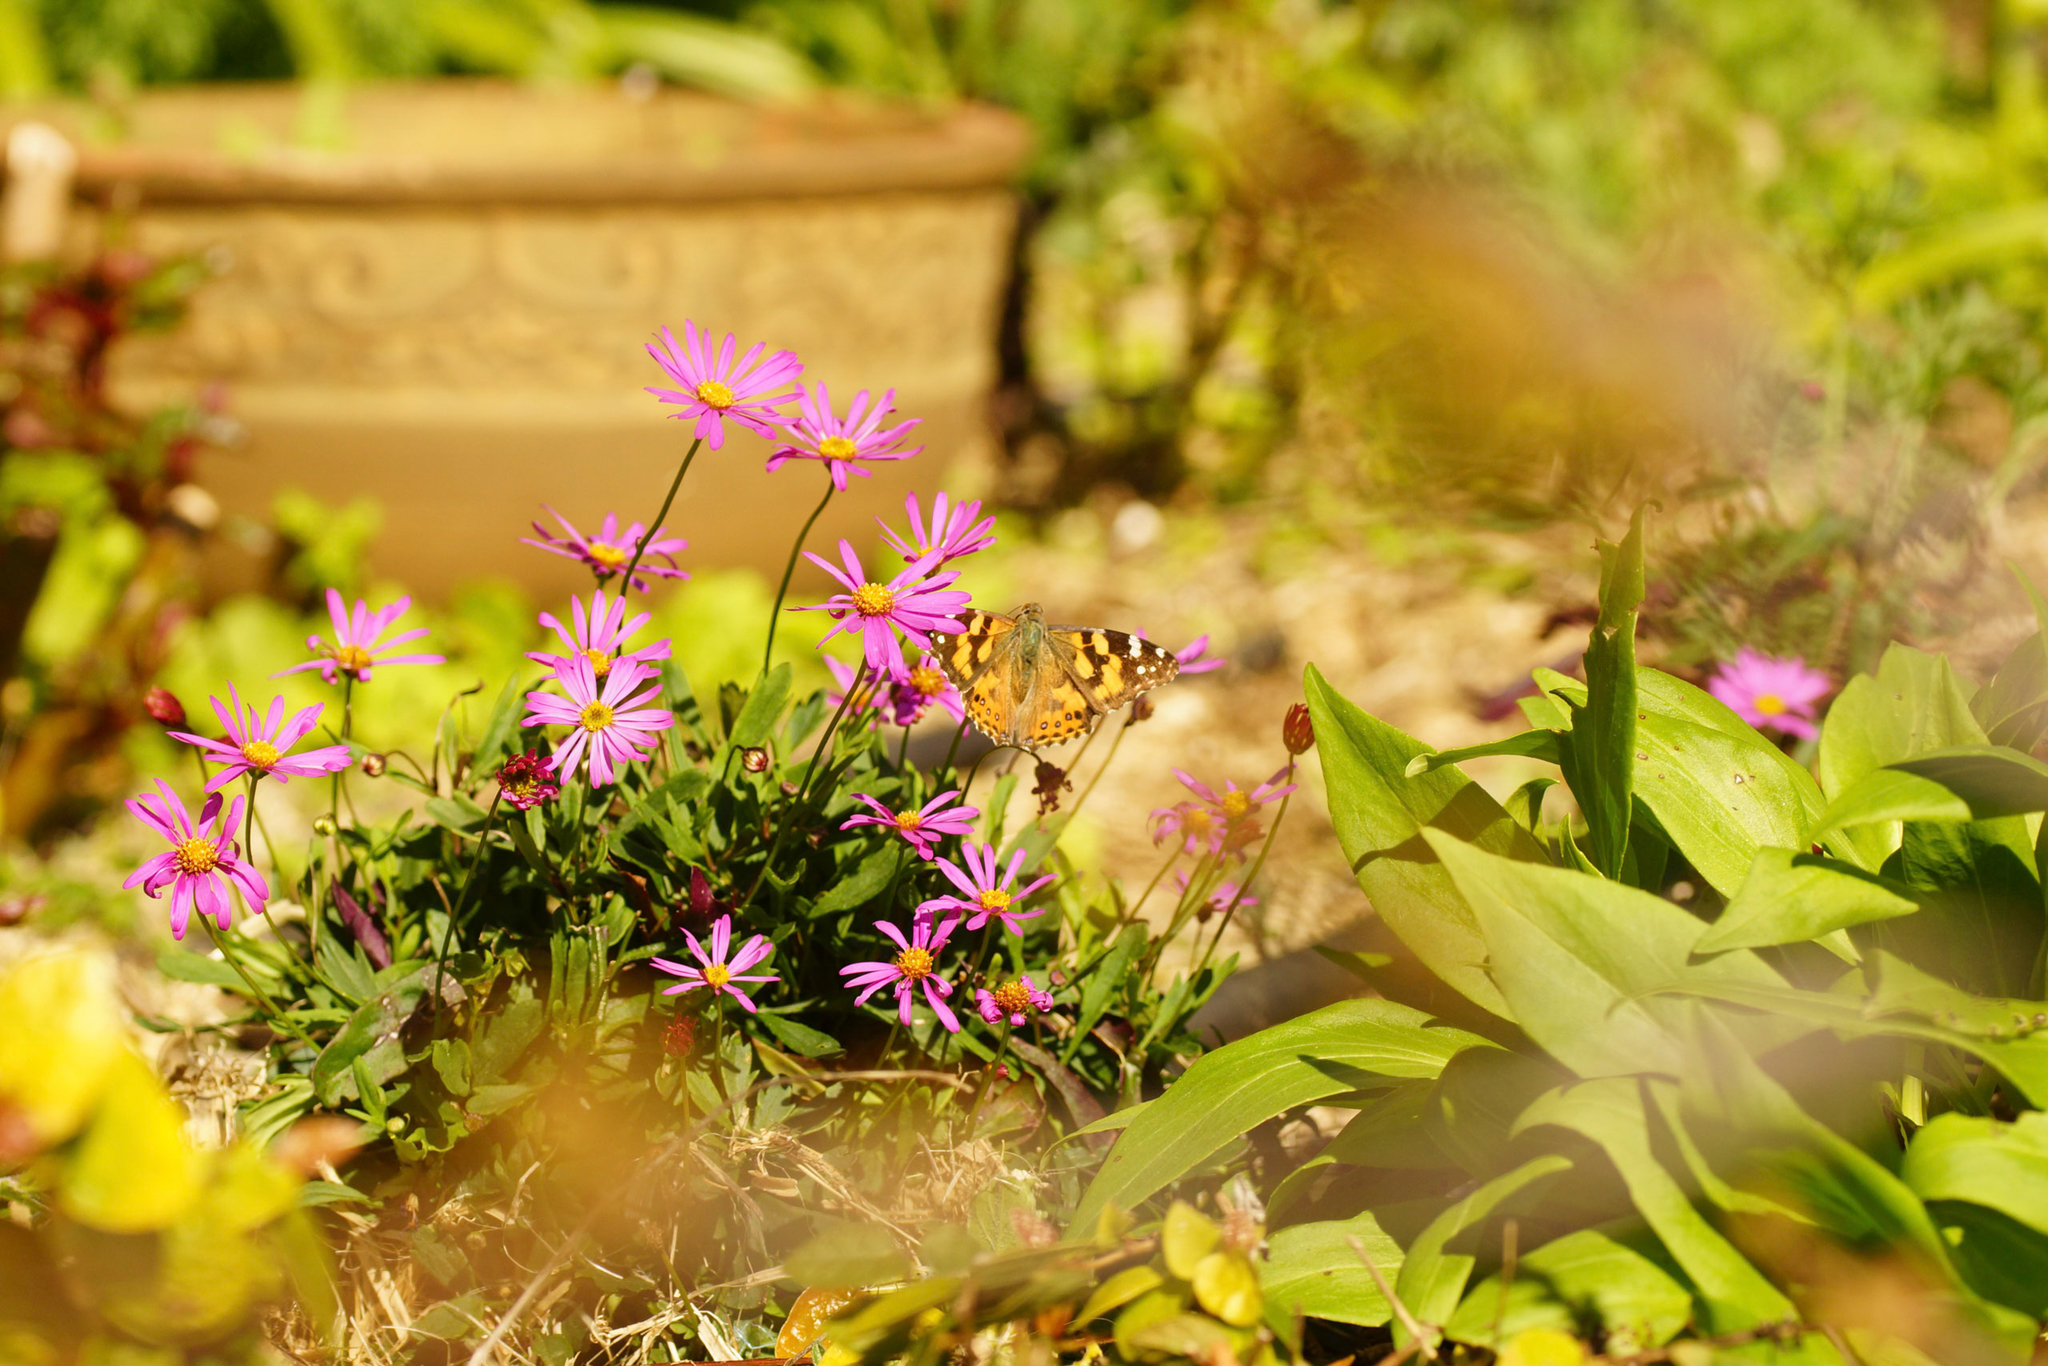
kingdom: Animalia
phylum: Arthropoda
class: Insecta
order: Lepidoptera
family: Nymphalidae
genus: Vanessa
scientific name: Vanessa kershawi
